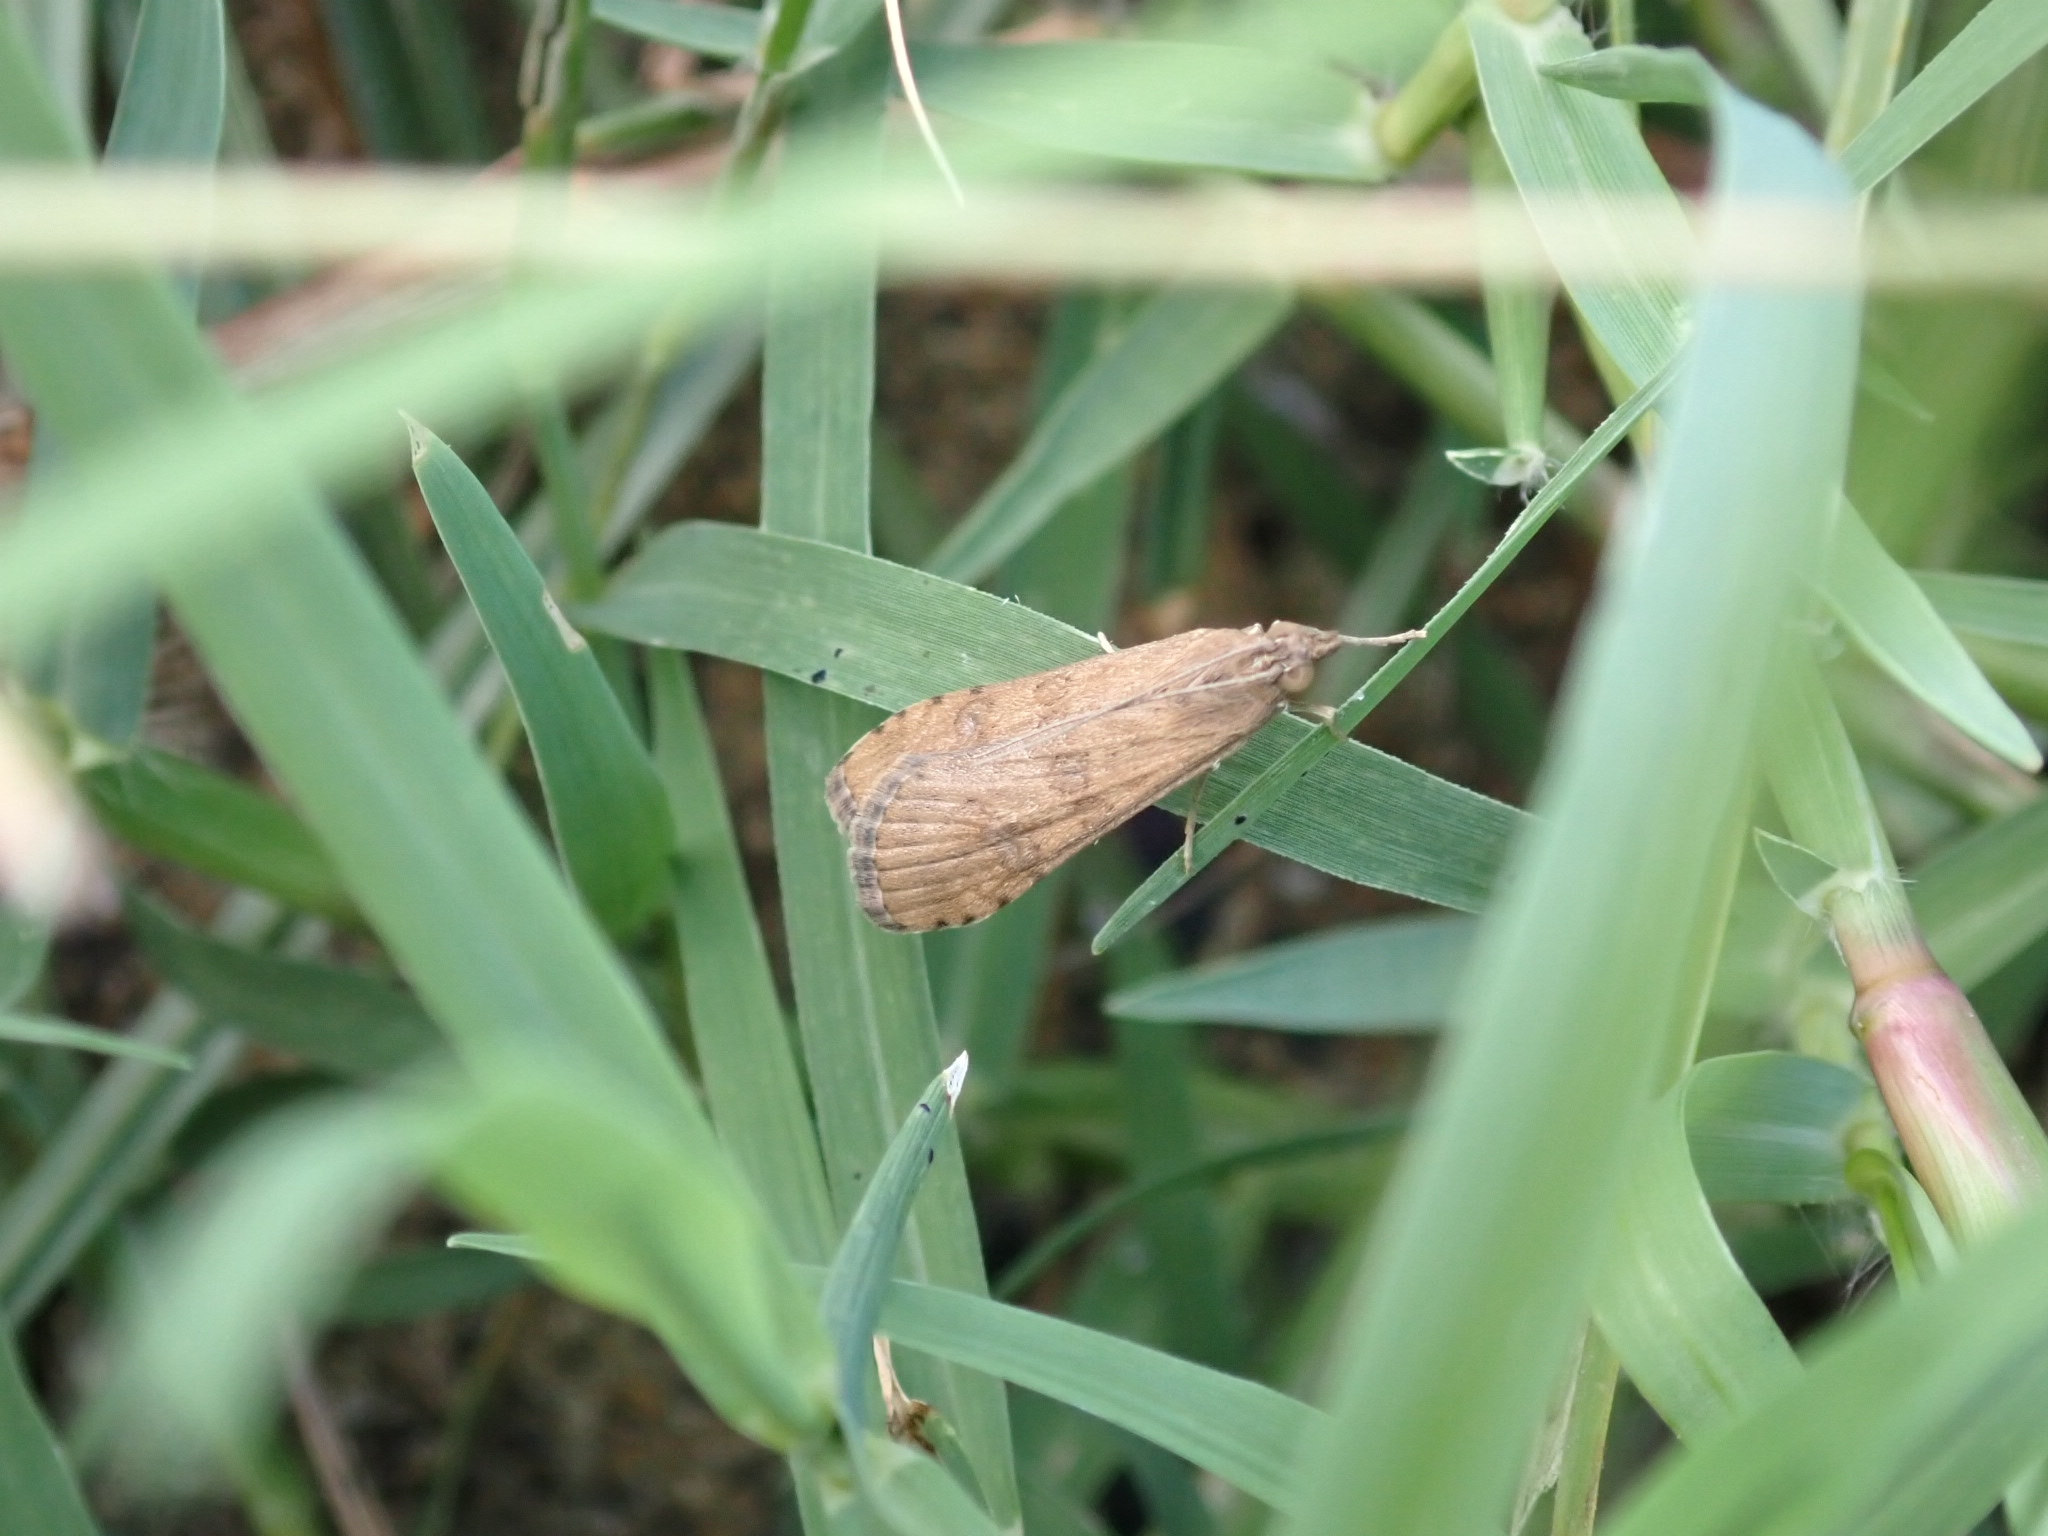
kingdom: Animalia
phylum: Arthropoda
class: Insecta
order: Lepidoptera
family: Crambidae
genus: Nomophila
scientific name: Nomophila noctuella
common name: Rush veneer
